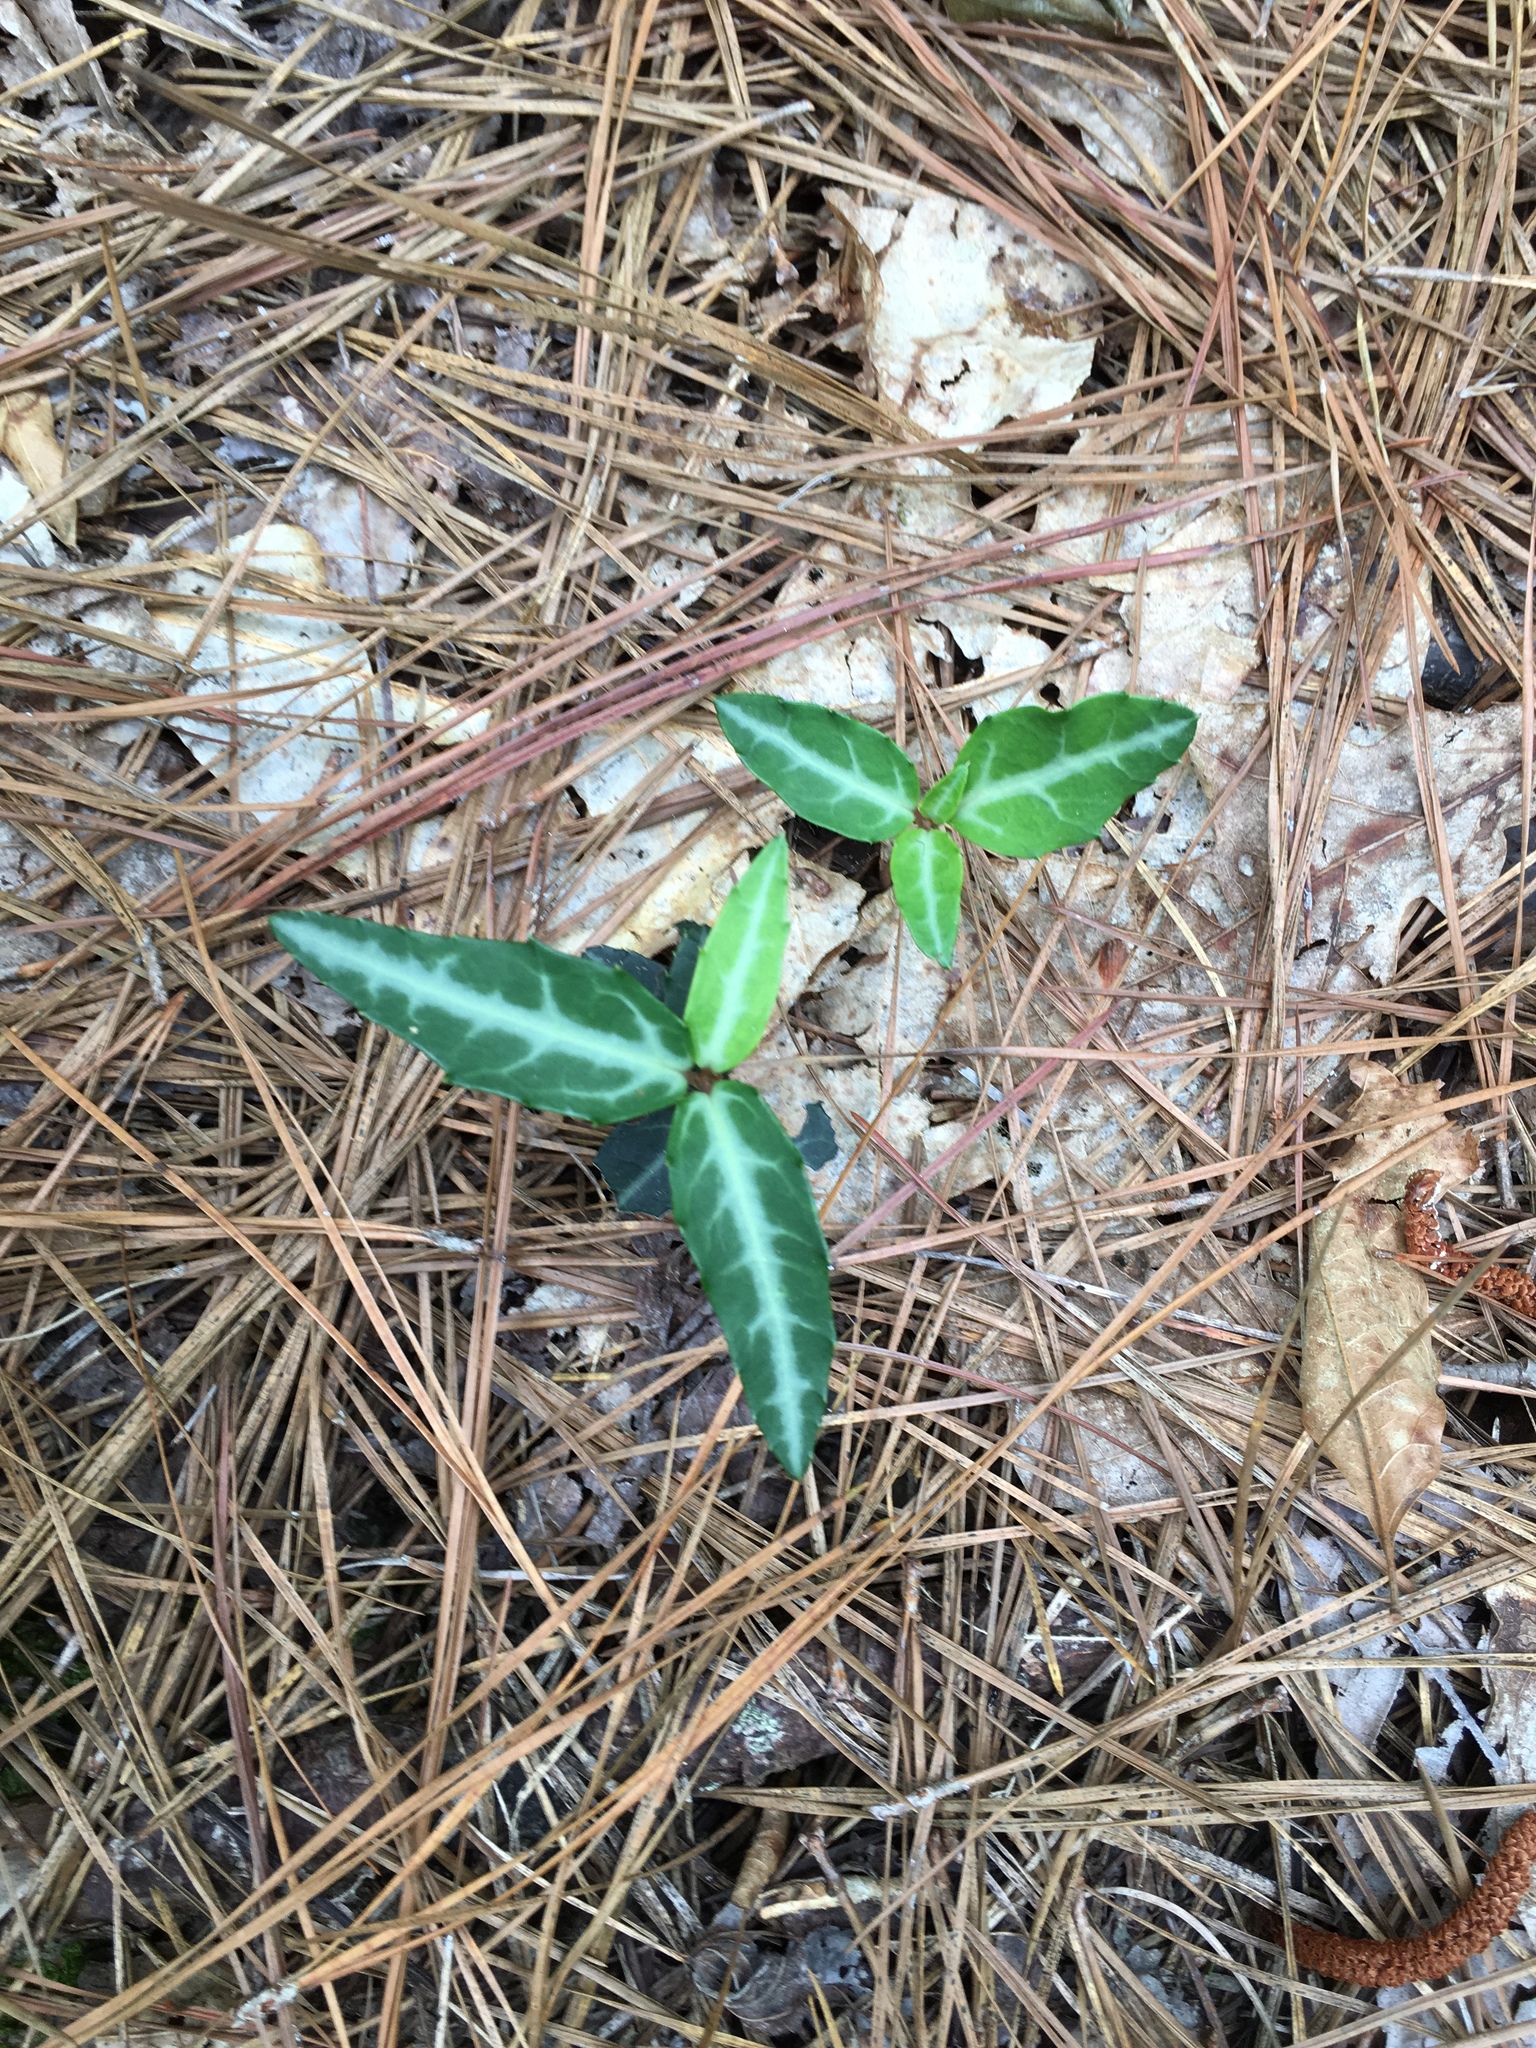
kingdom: Plantae
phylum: Tracheophyta
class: Magnoliopsida
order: Ericales
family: Ericaceae
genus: Chimaphila
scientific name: Chimaphila maculata
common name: Spotted pipsissewa
